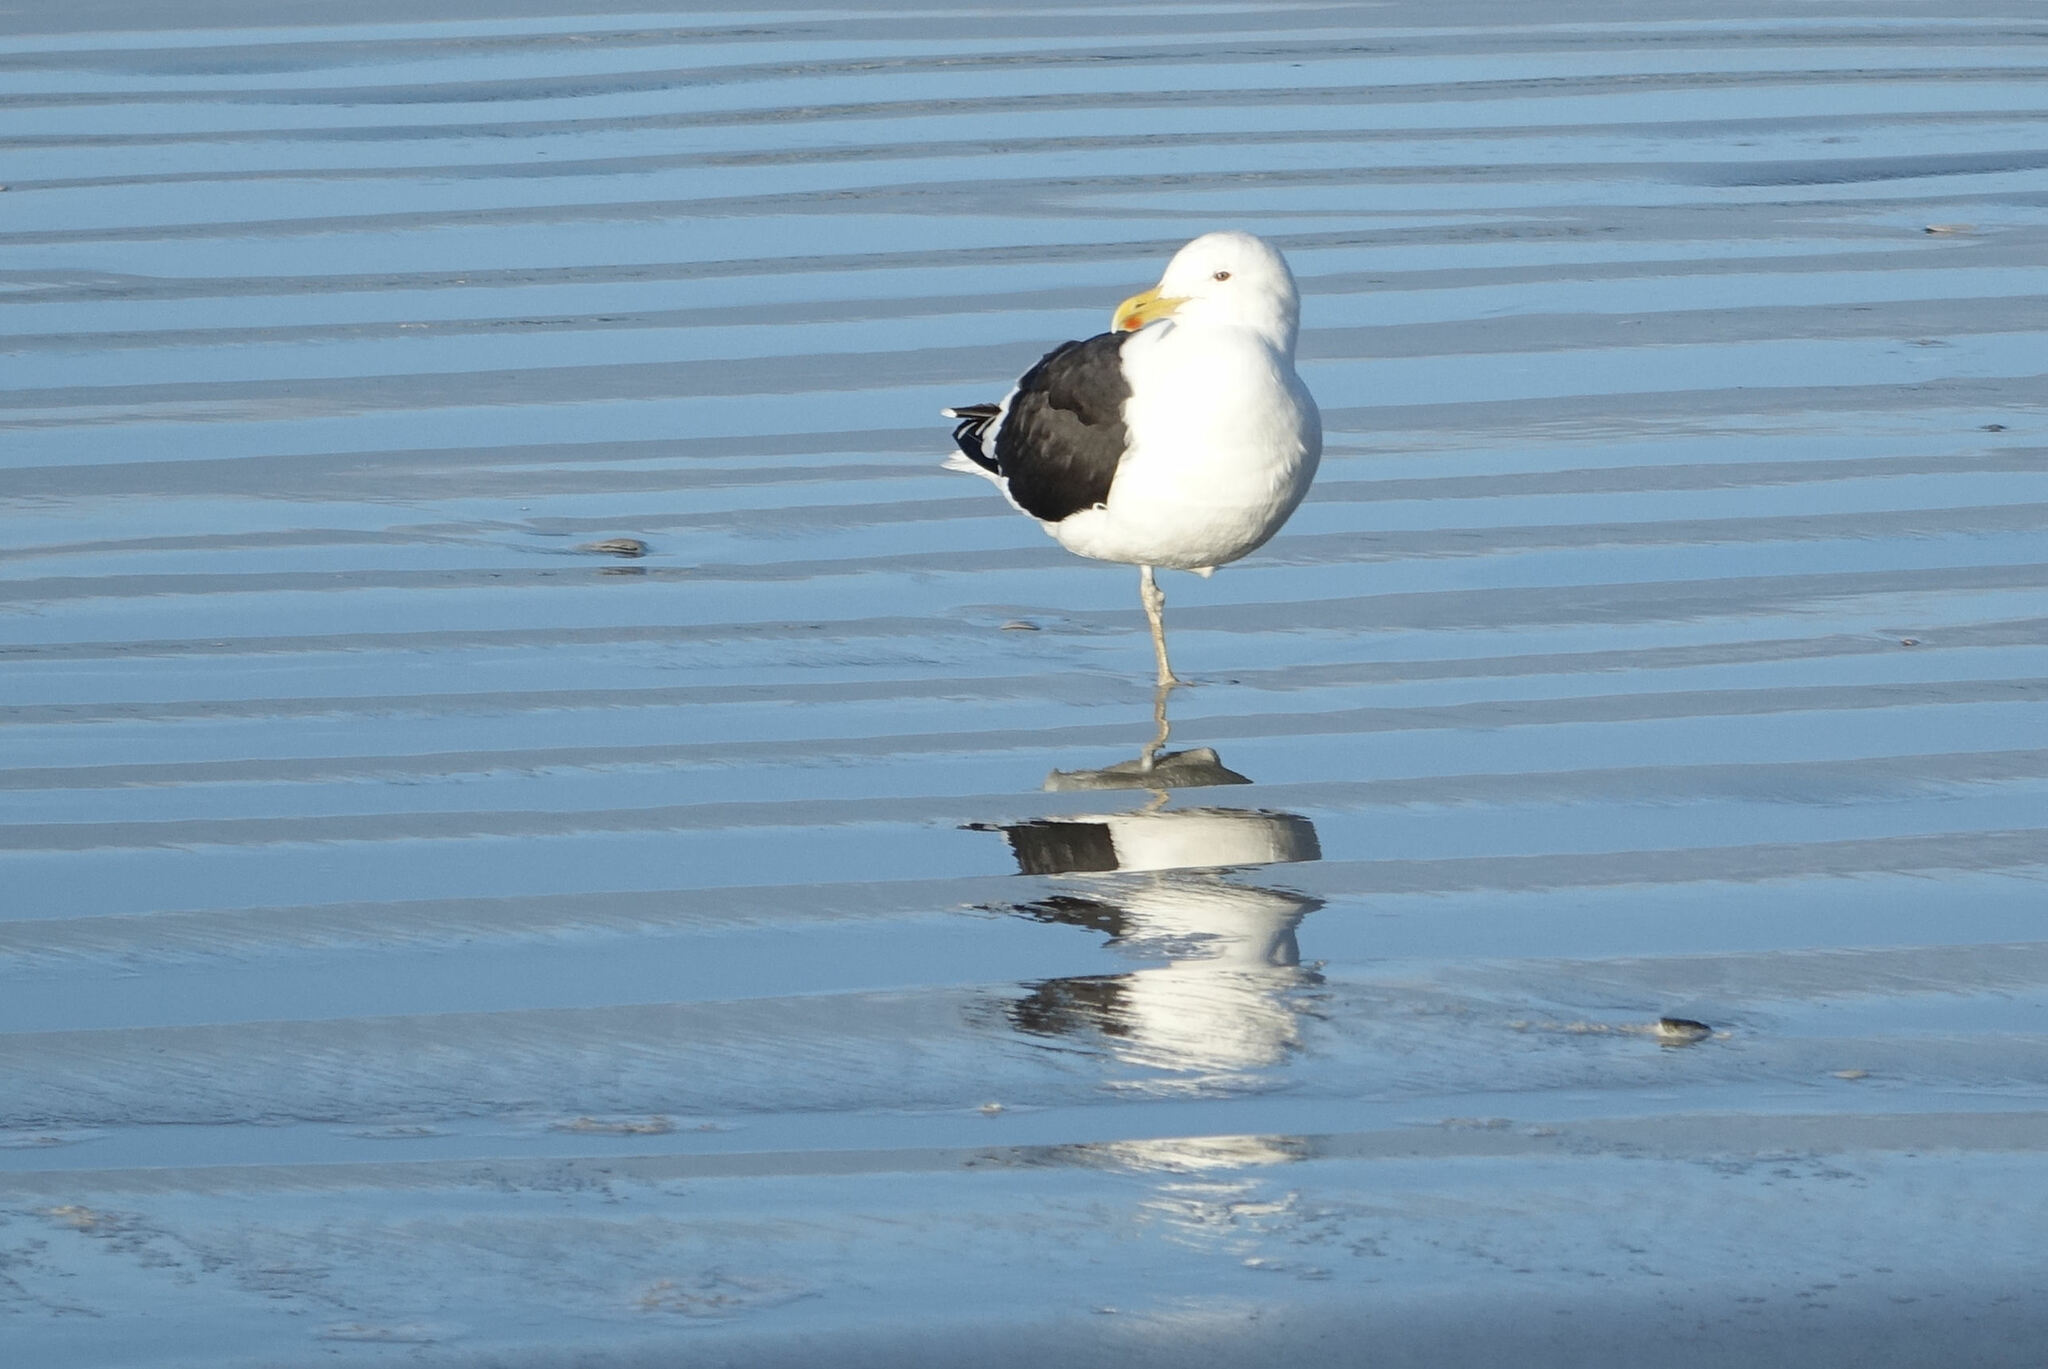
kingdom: Animalia
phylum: Chordata
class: Aves
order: Charadriiformes
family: Laridae
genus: Larus
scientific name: Larus dominicanus
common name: Kelp gull
